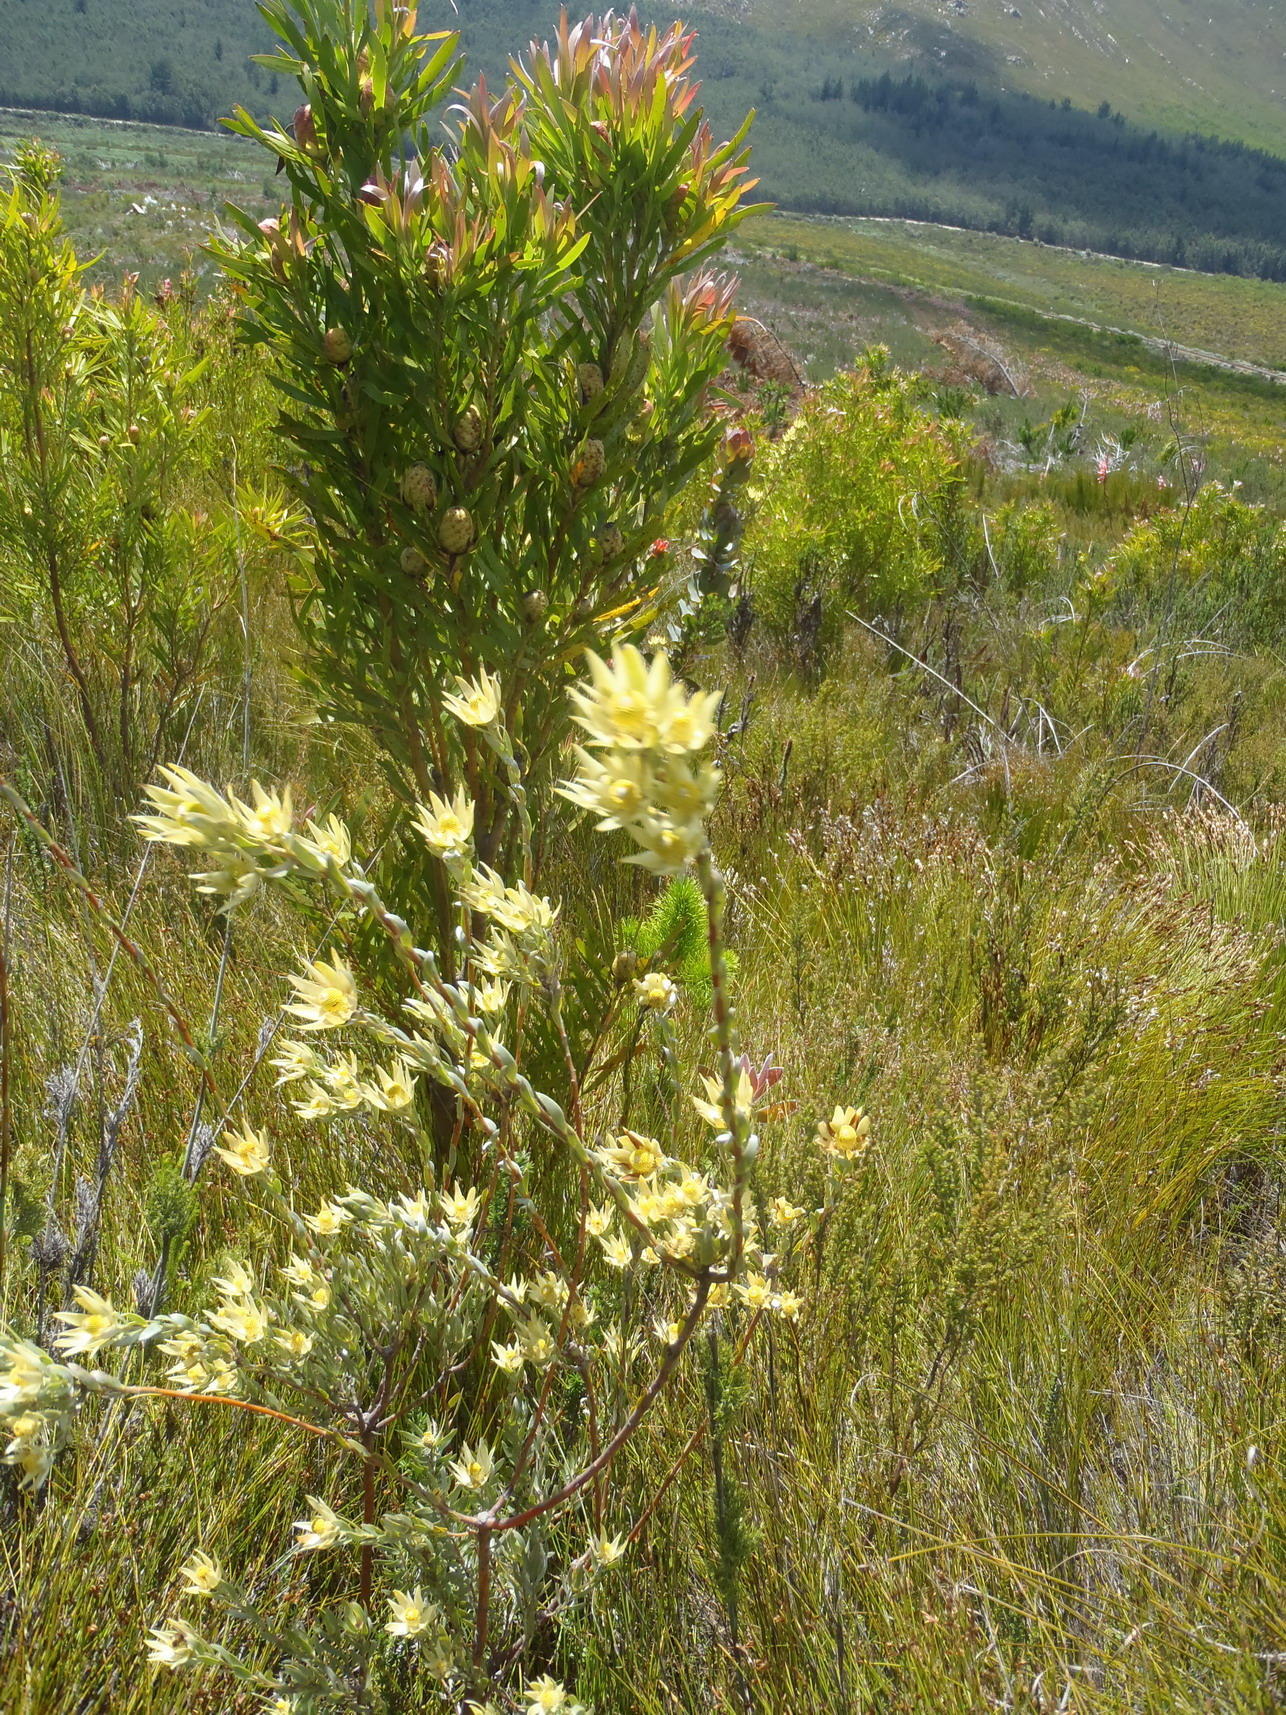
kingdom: Plantae
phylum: Tracheophyta
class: Magnoliopsida
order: Proteales
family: Proteaceae
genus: Leucadendron
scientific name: Leucadendron uliginosum
